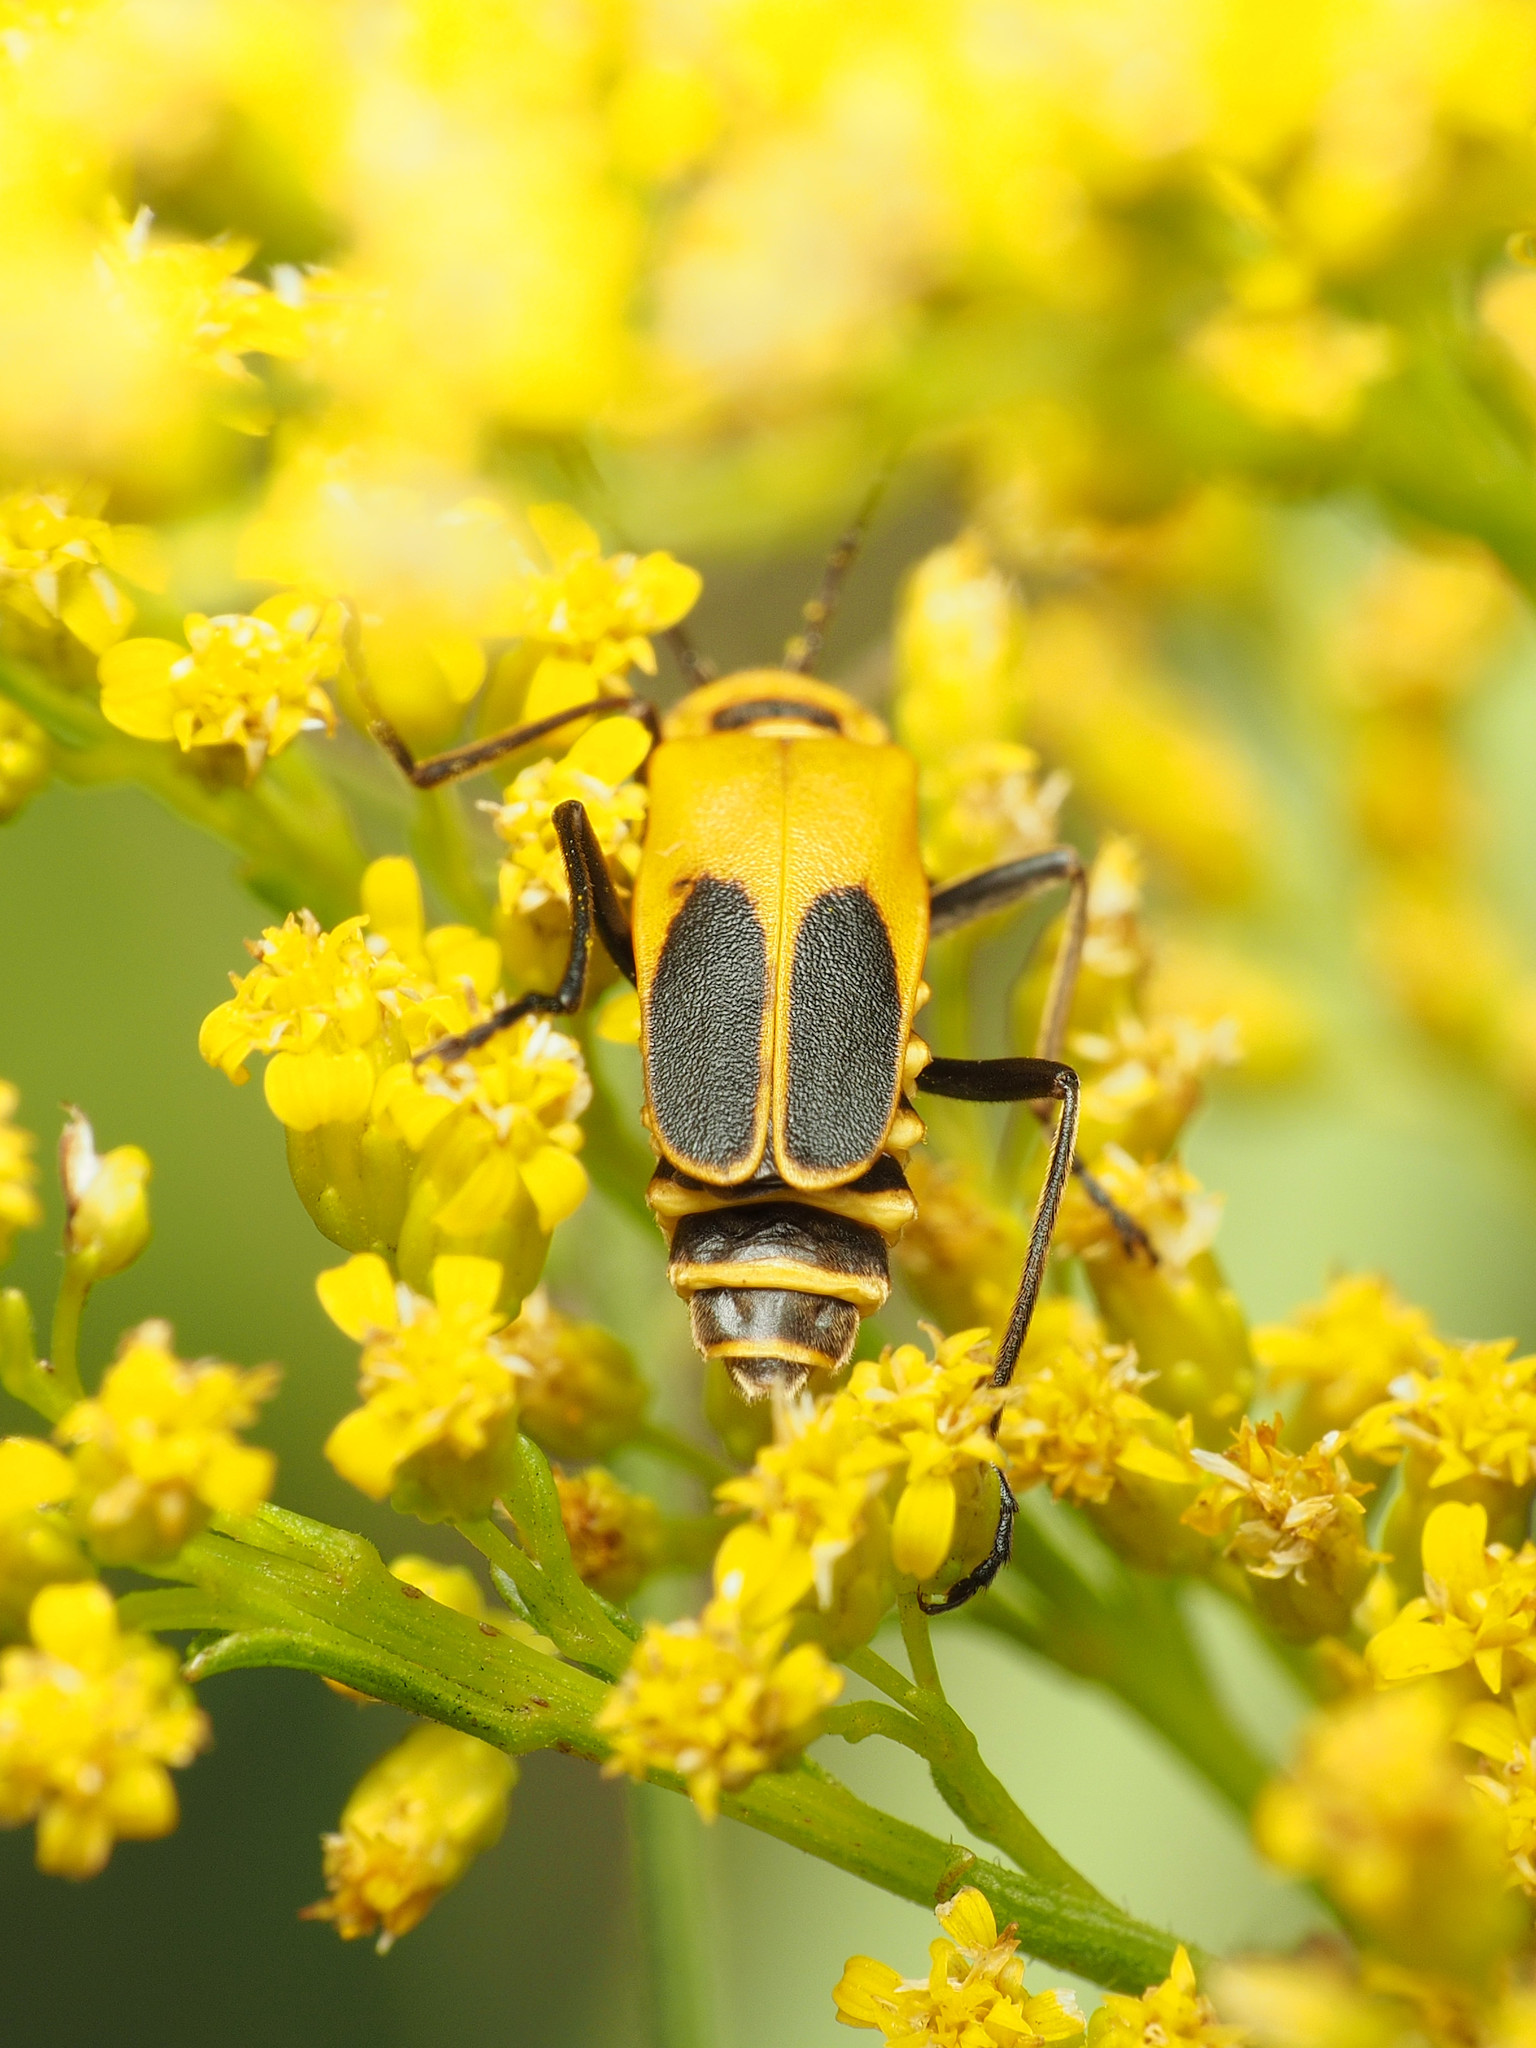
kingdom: Animalia
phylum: Arthropoda
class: Insecta
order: Coleoptera
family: Cantharidae
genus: Chauliognathus
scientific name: Chauliognathus pensylvanicus
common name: Goldenrod soldier beetle
